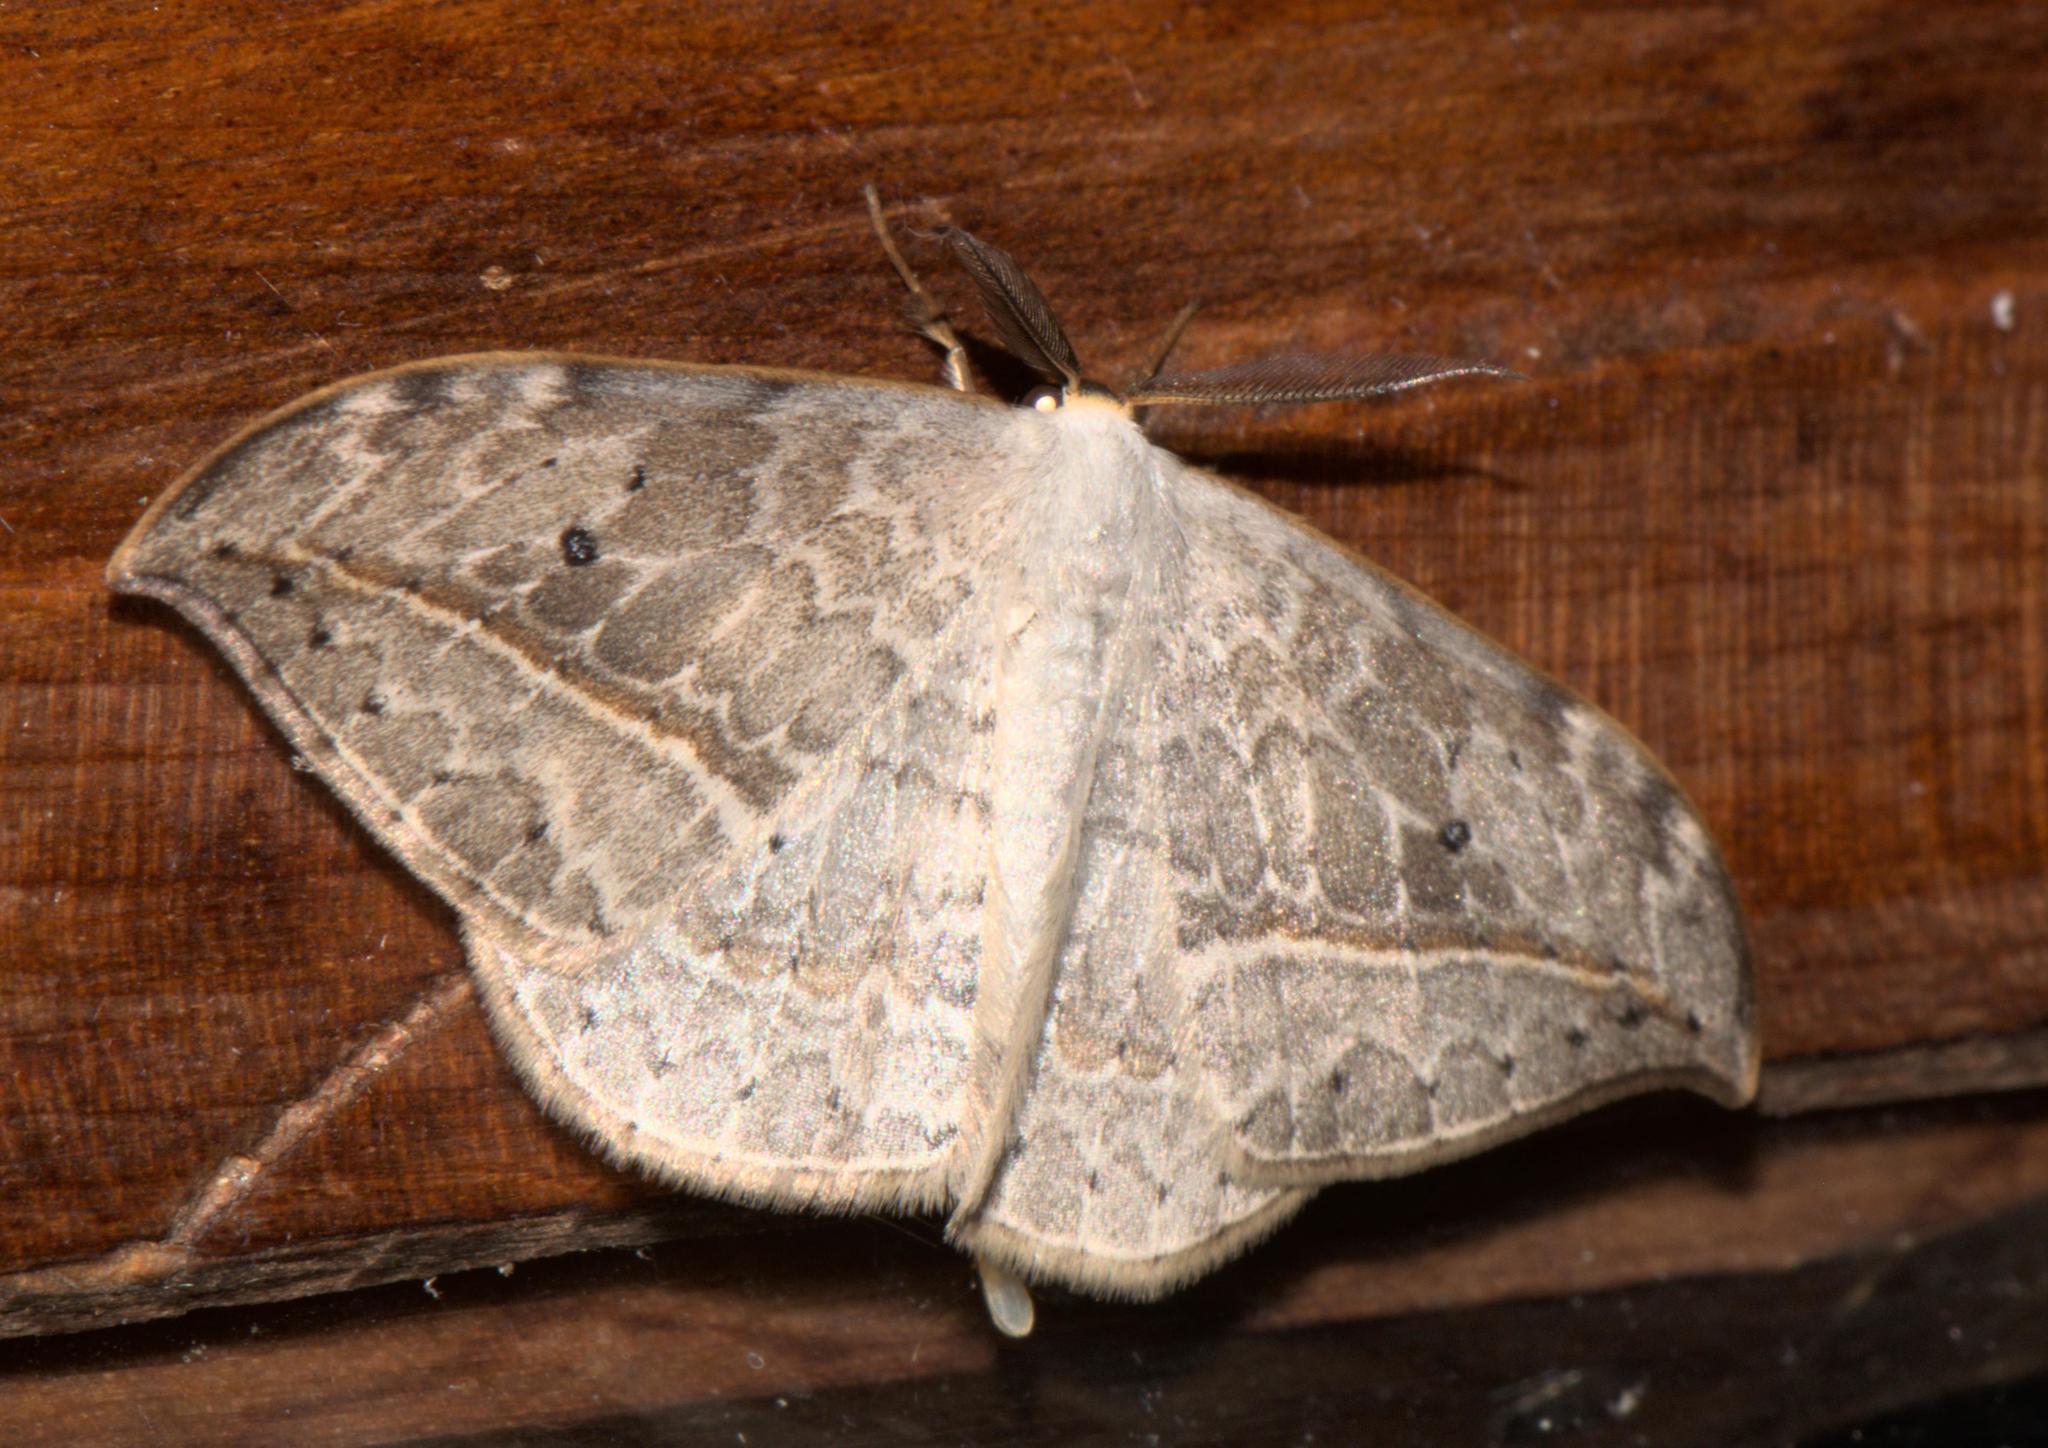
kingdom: Animalia
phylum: Arthropoda
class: Insecta
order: Lepidoptera
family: Drepanidae
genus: Drepana
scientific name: Drepana pallida
